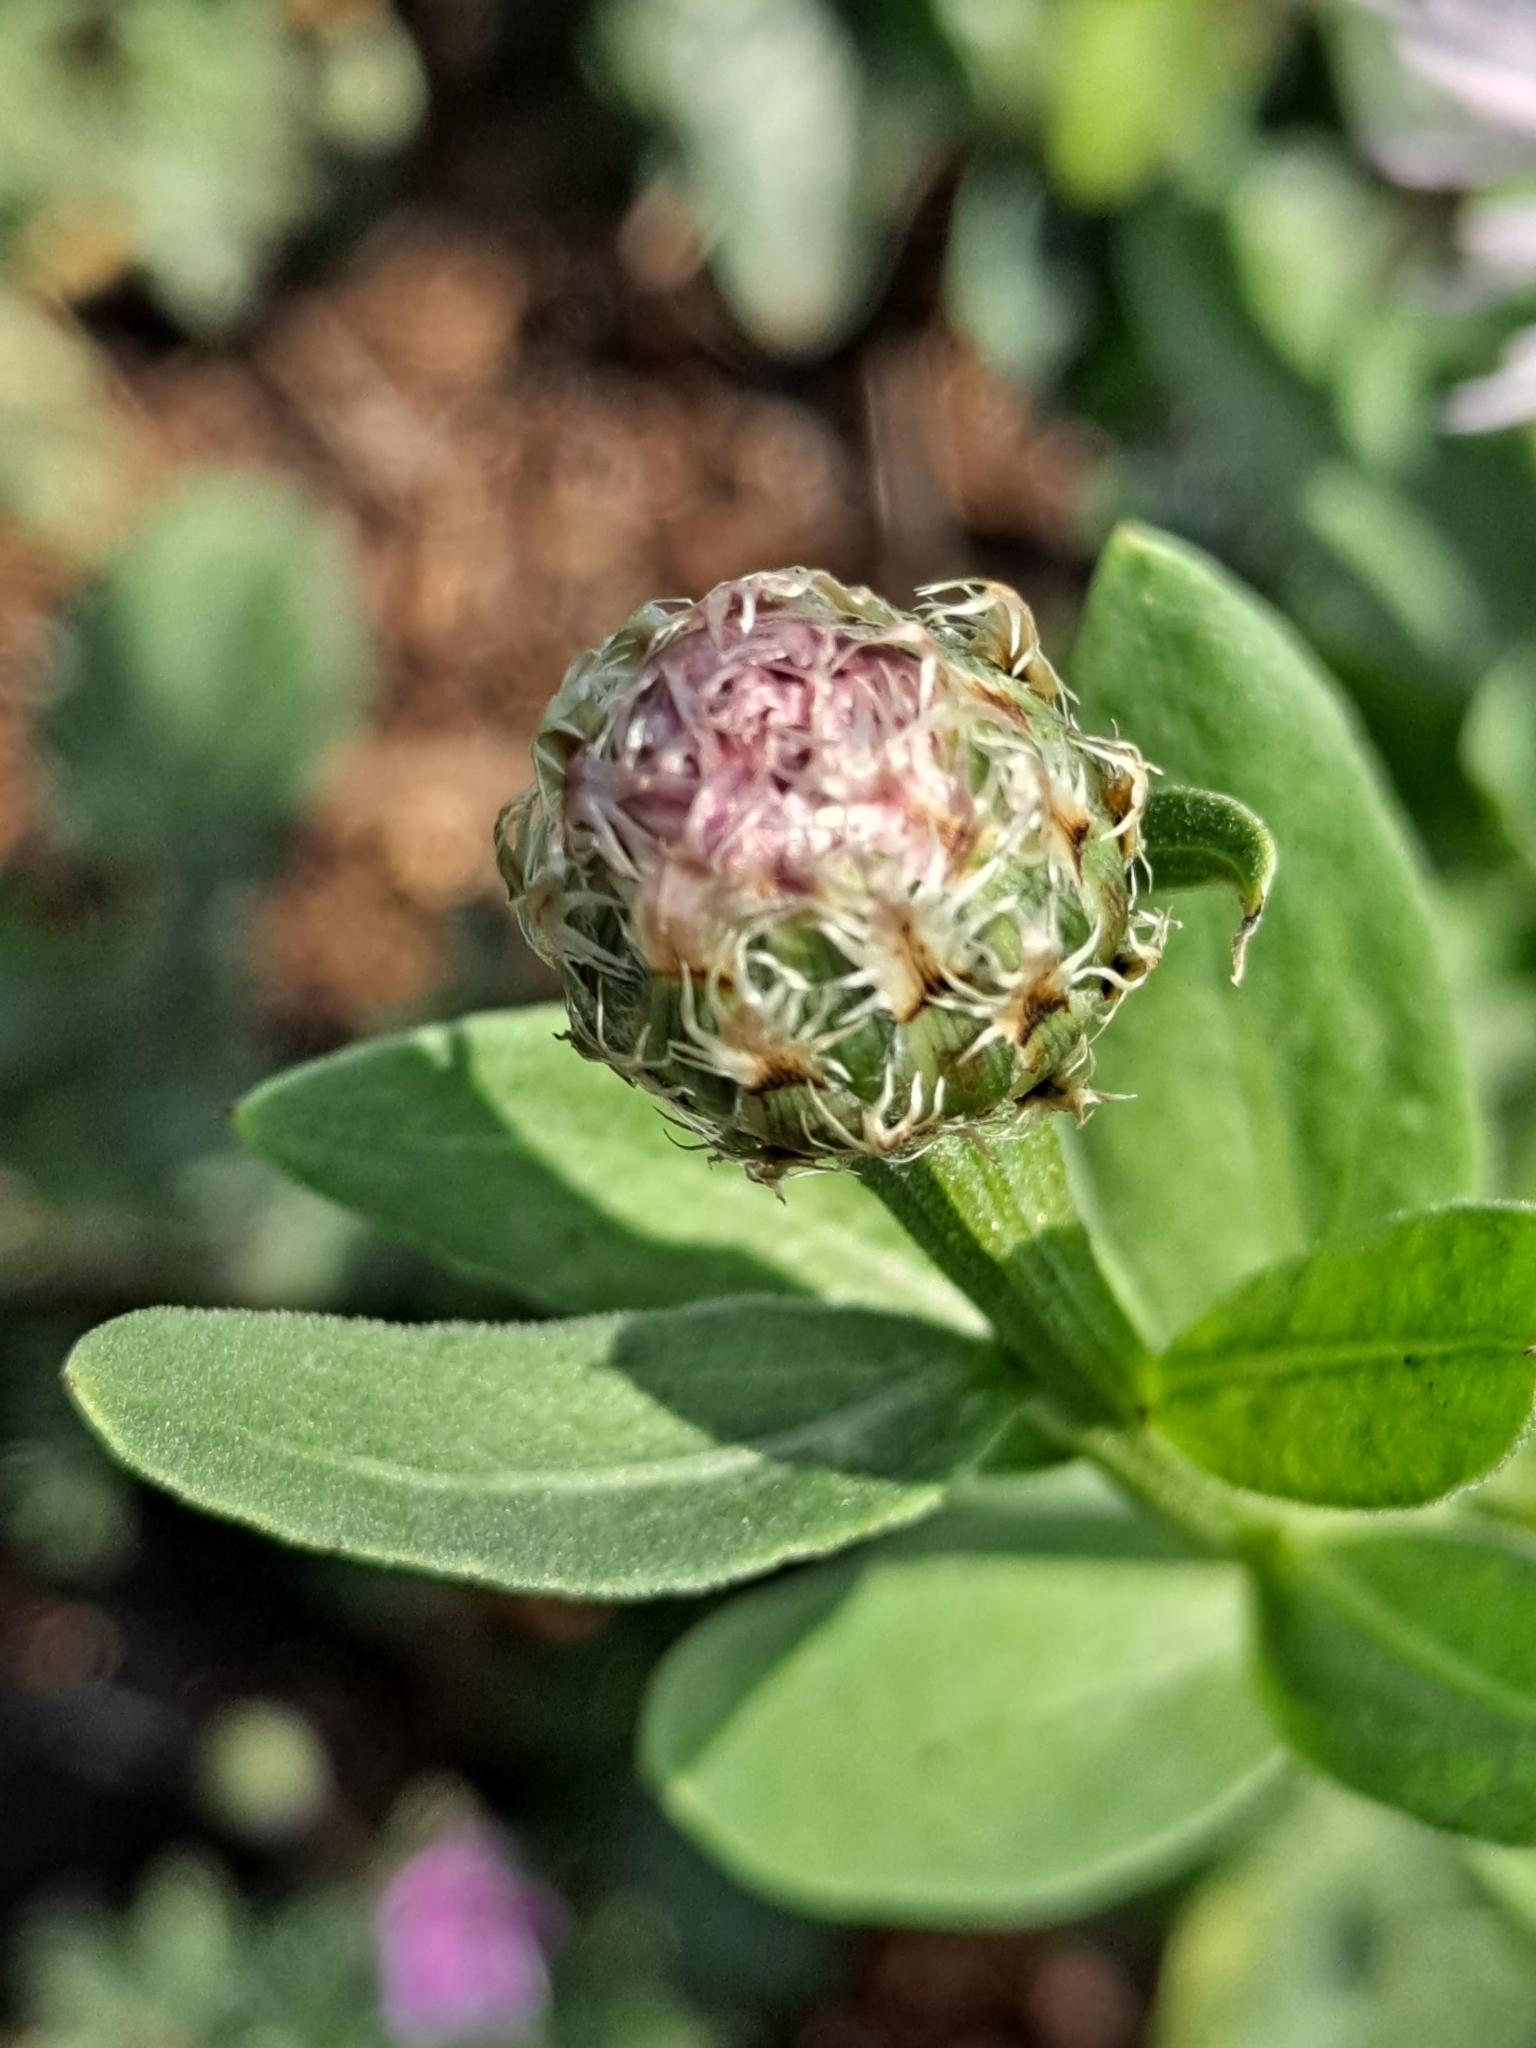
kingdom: Plantae
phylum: Tracheophyta
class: Magnoliopsida
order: Asterales
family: Asteraceae
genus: Plectocephalus
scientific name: Plectocephalus americanus
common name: American basket-flower
